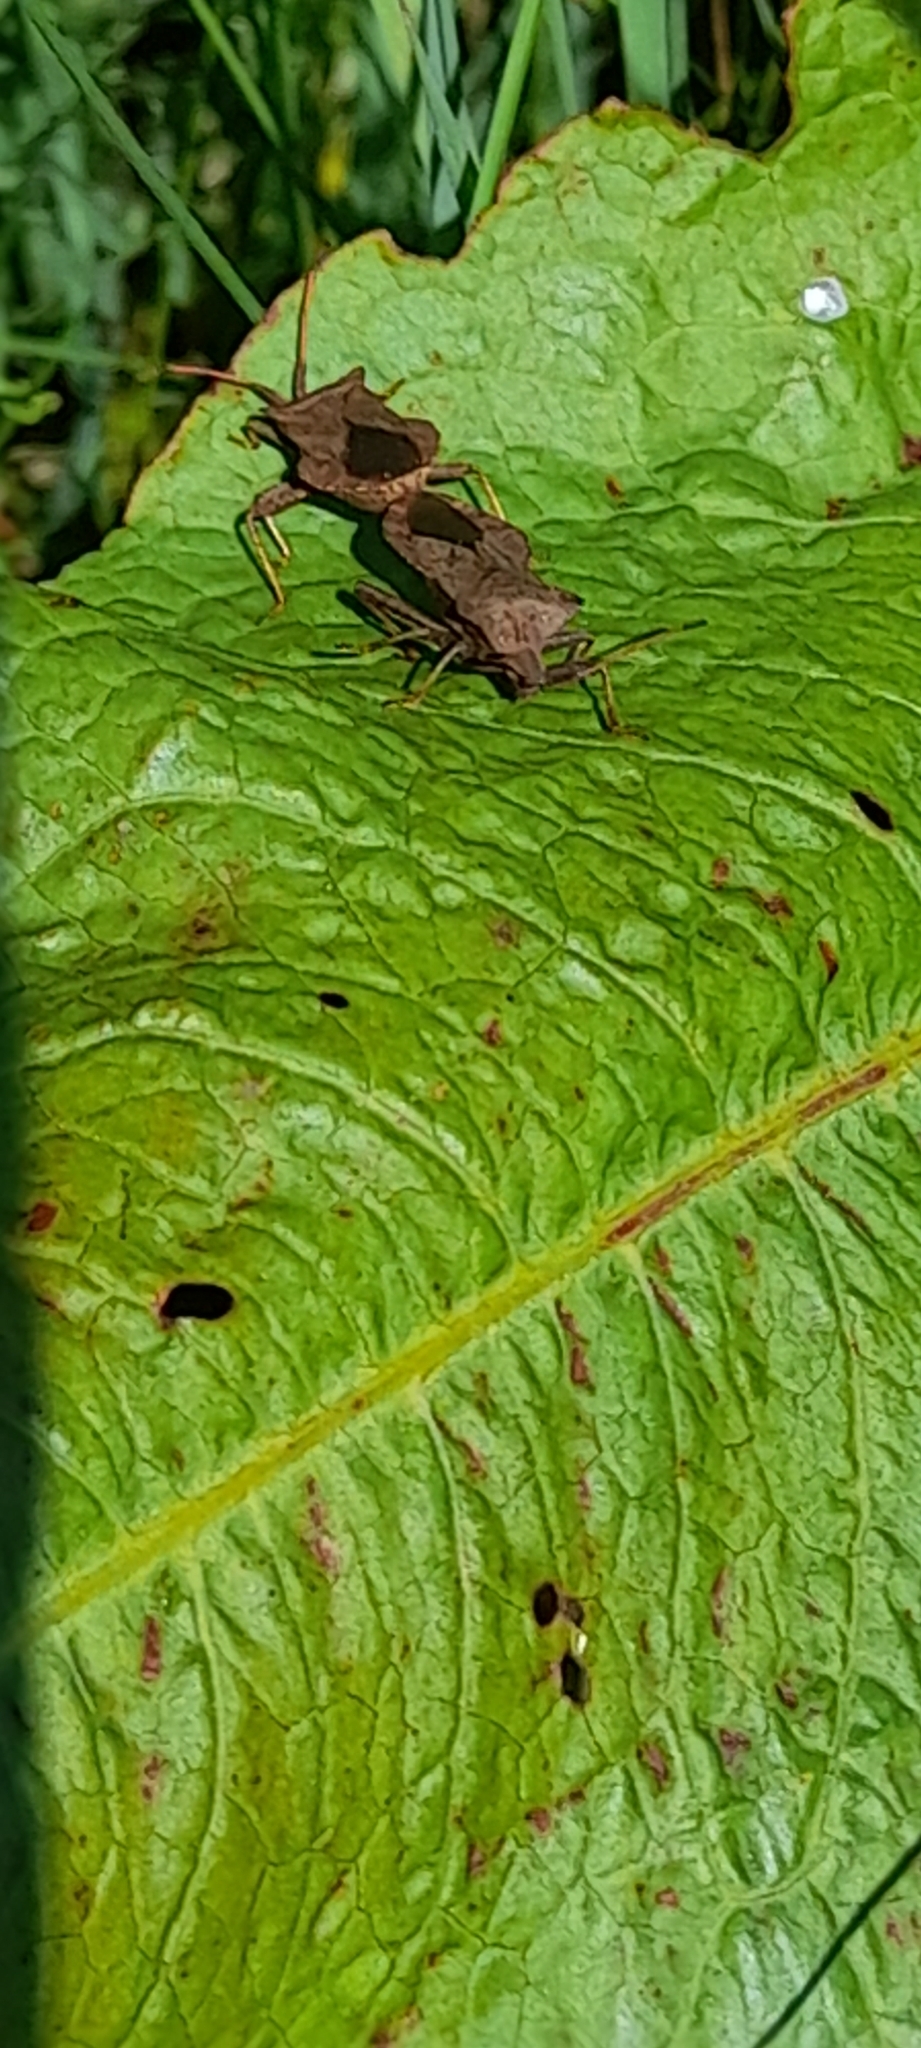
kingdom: Animalia
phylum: Arthropoda
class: Insecta
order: Hemiptera
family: Coreidae
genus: Coreus
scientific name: Coreus marginatus
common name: Dock bug
